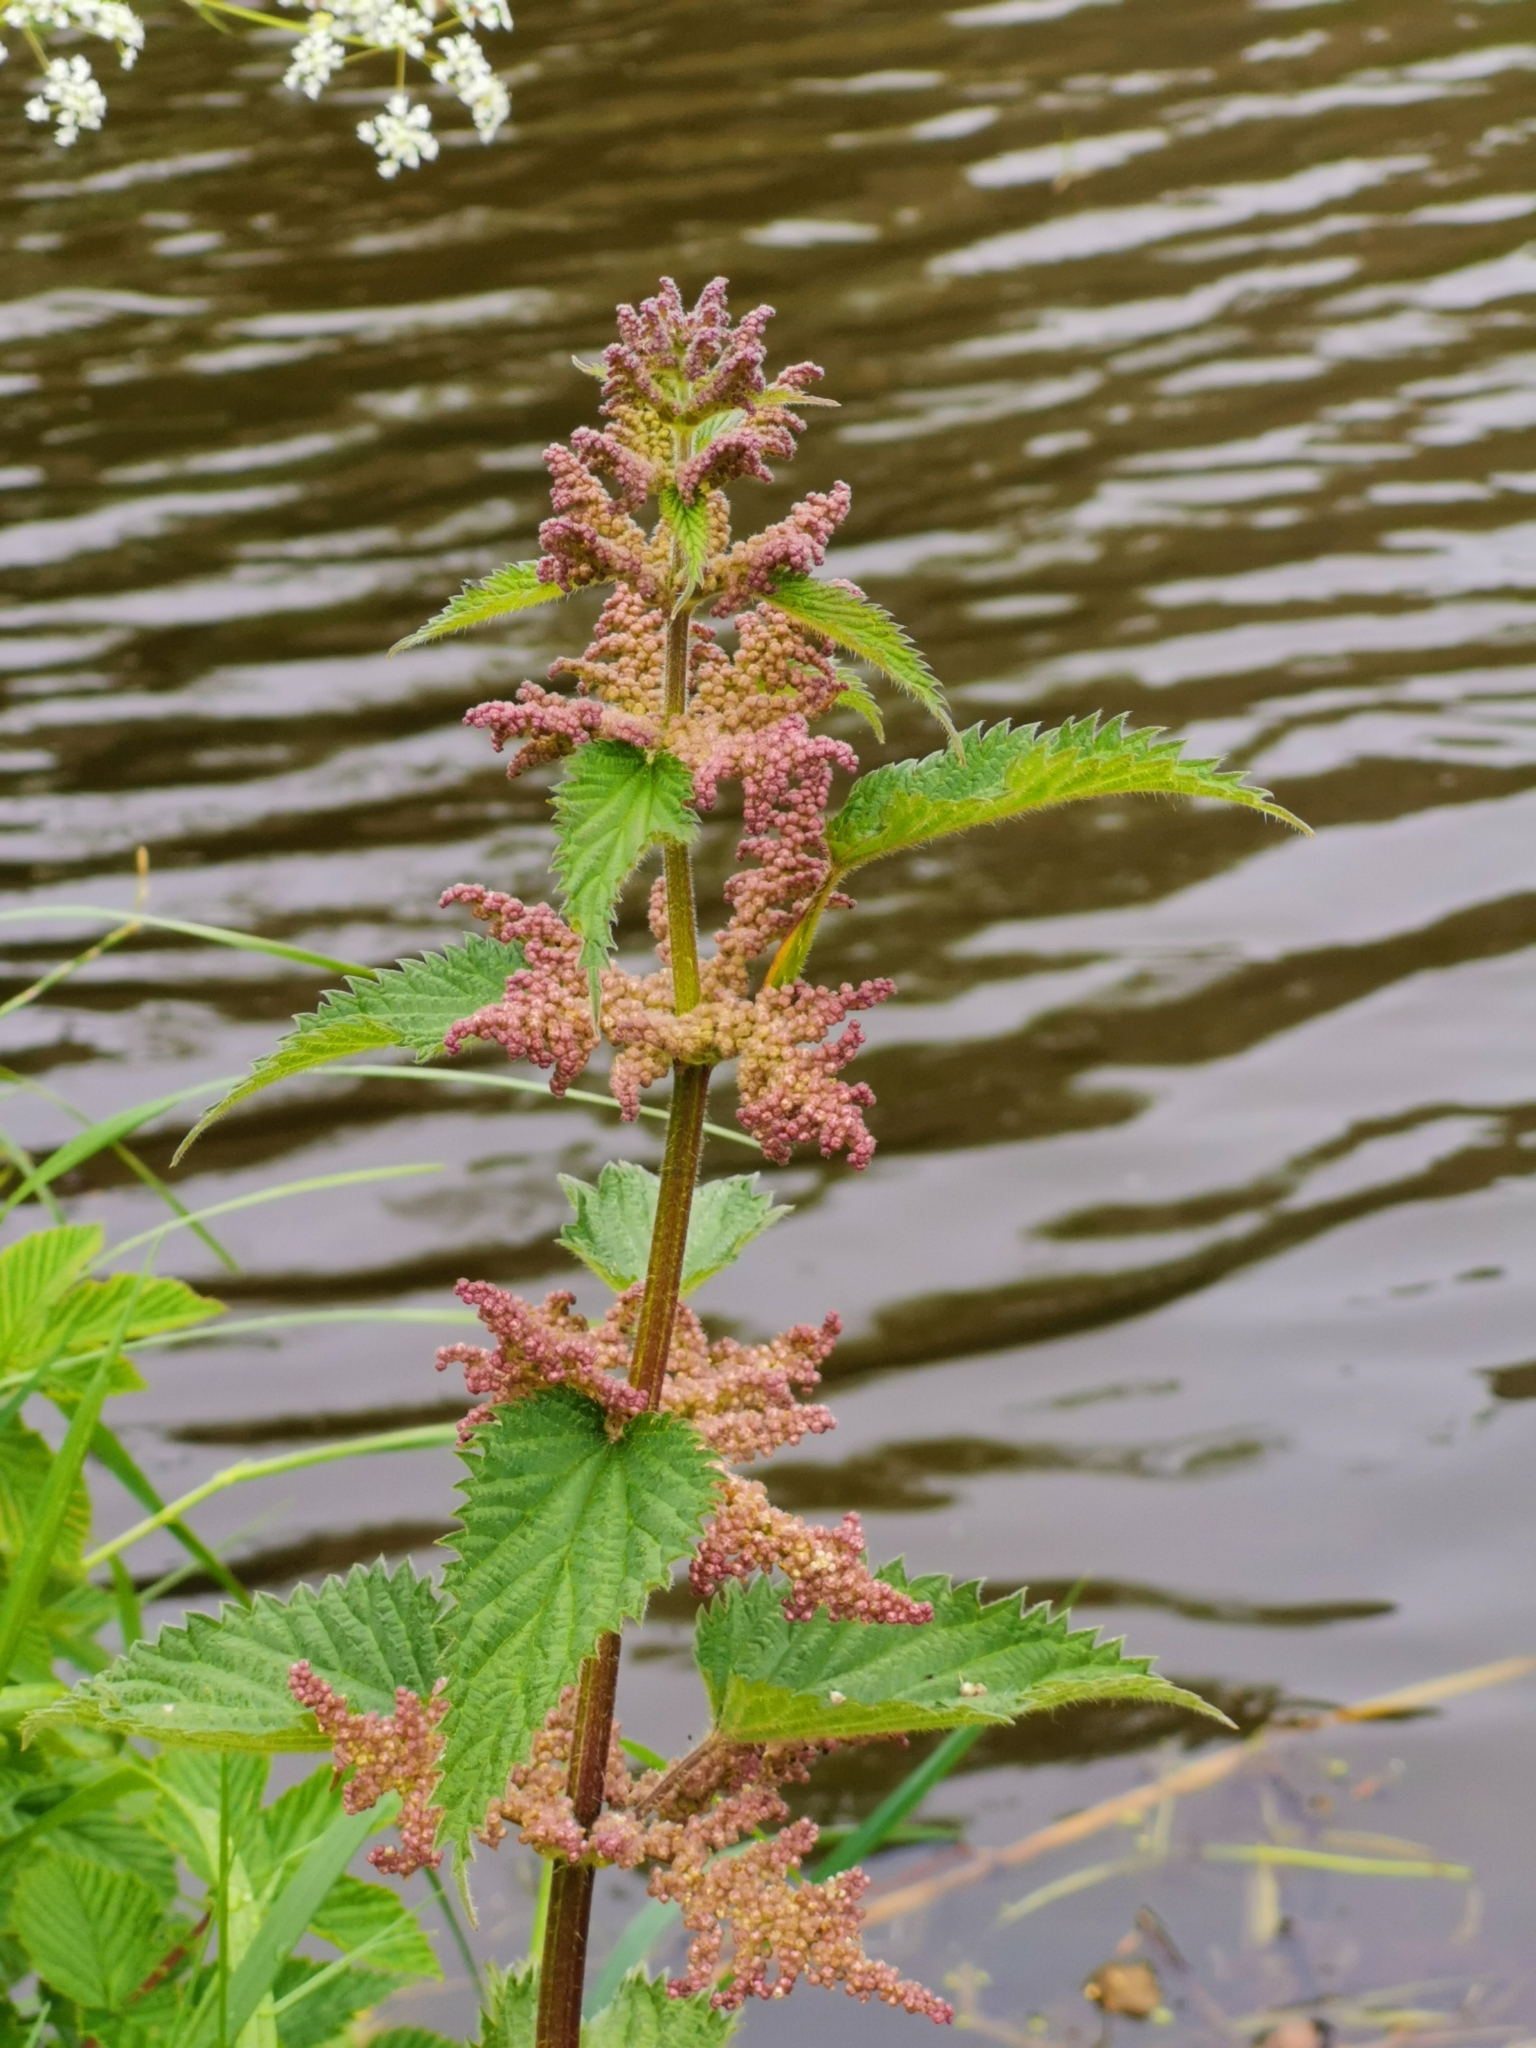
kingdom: Plantae
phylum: Tracheophyta
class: Magnoliopsida
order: Rosales
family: Urticaceae
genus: Urtica
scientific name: Urtica dioica
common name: Common nettle
